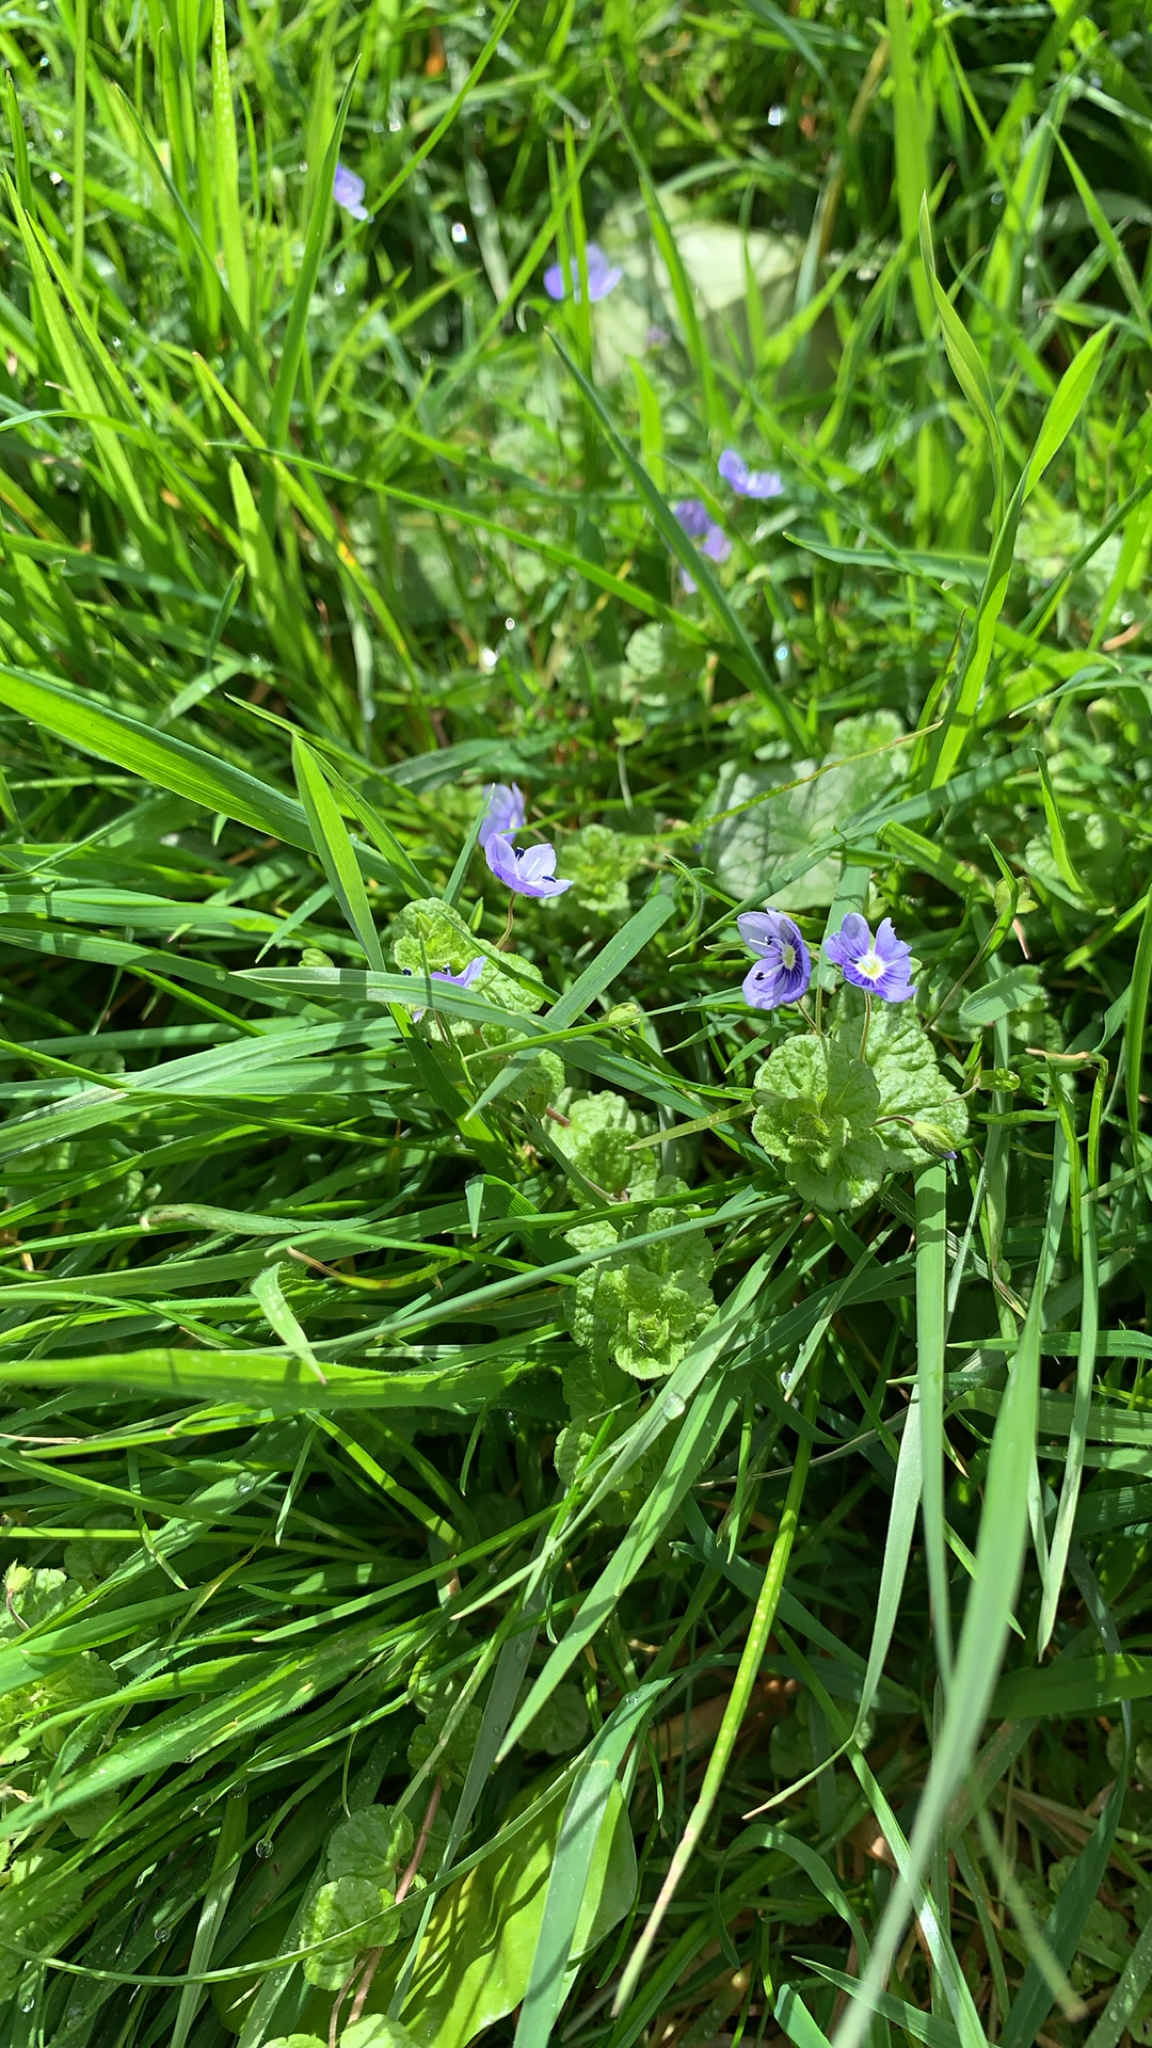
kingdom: Plantae
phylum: Tracheophyta
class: Magnoliopsida
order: Lamiales
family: Plantaginaceae
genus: Veronica
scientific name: Veronica filiformis
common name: Slender speedwell
